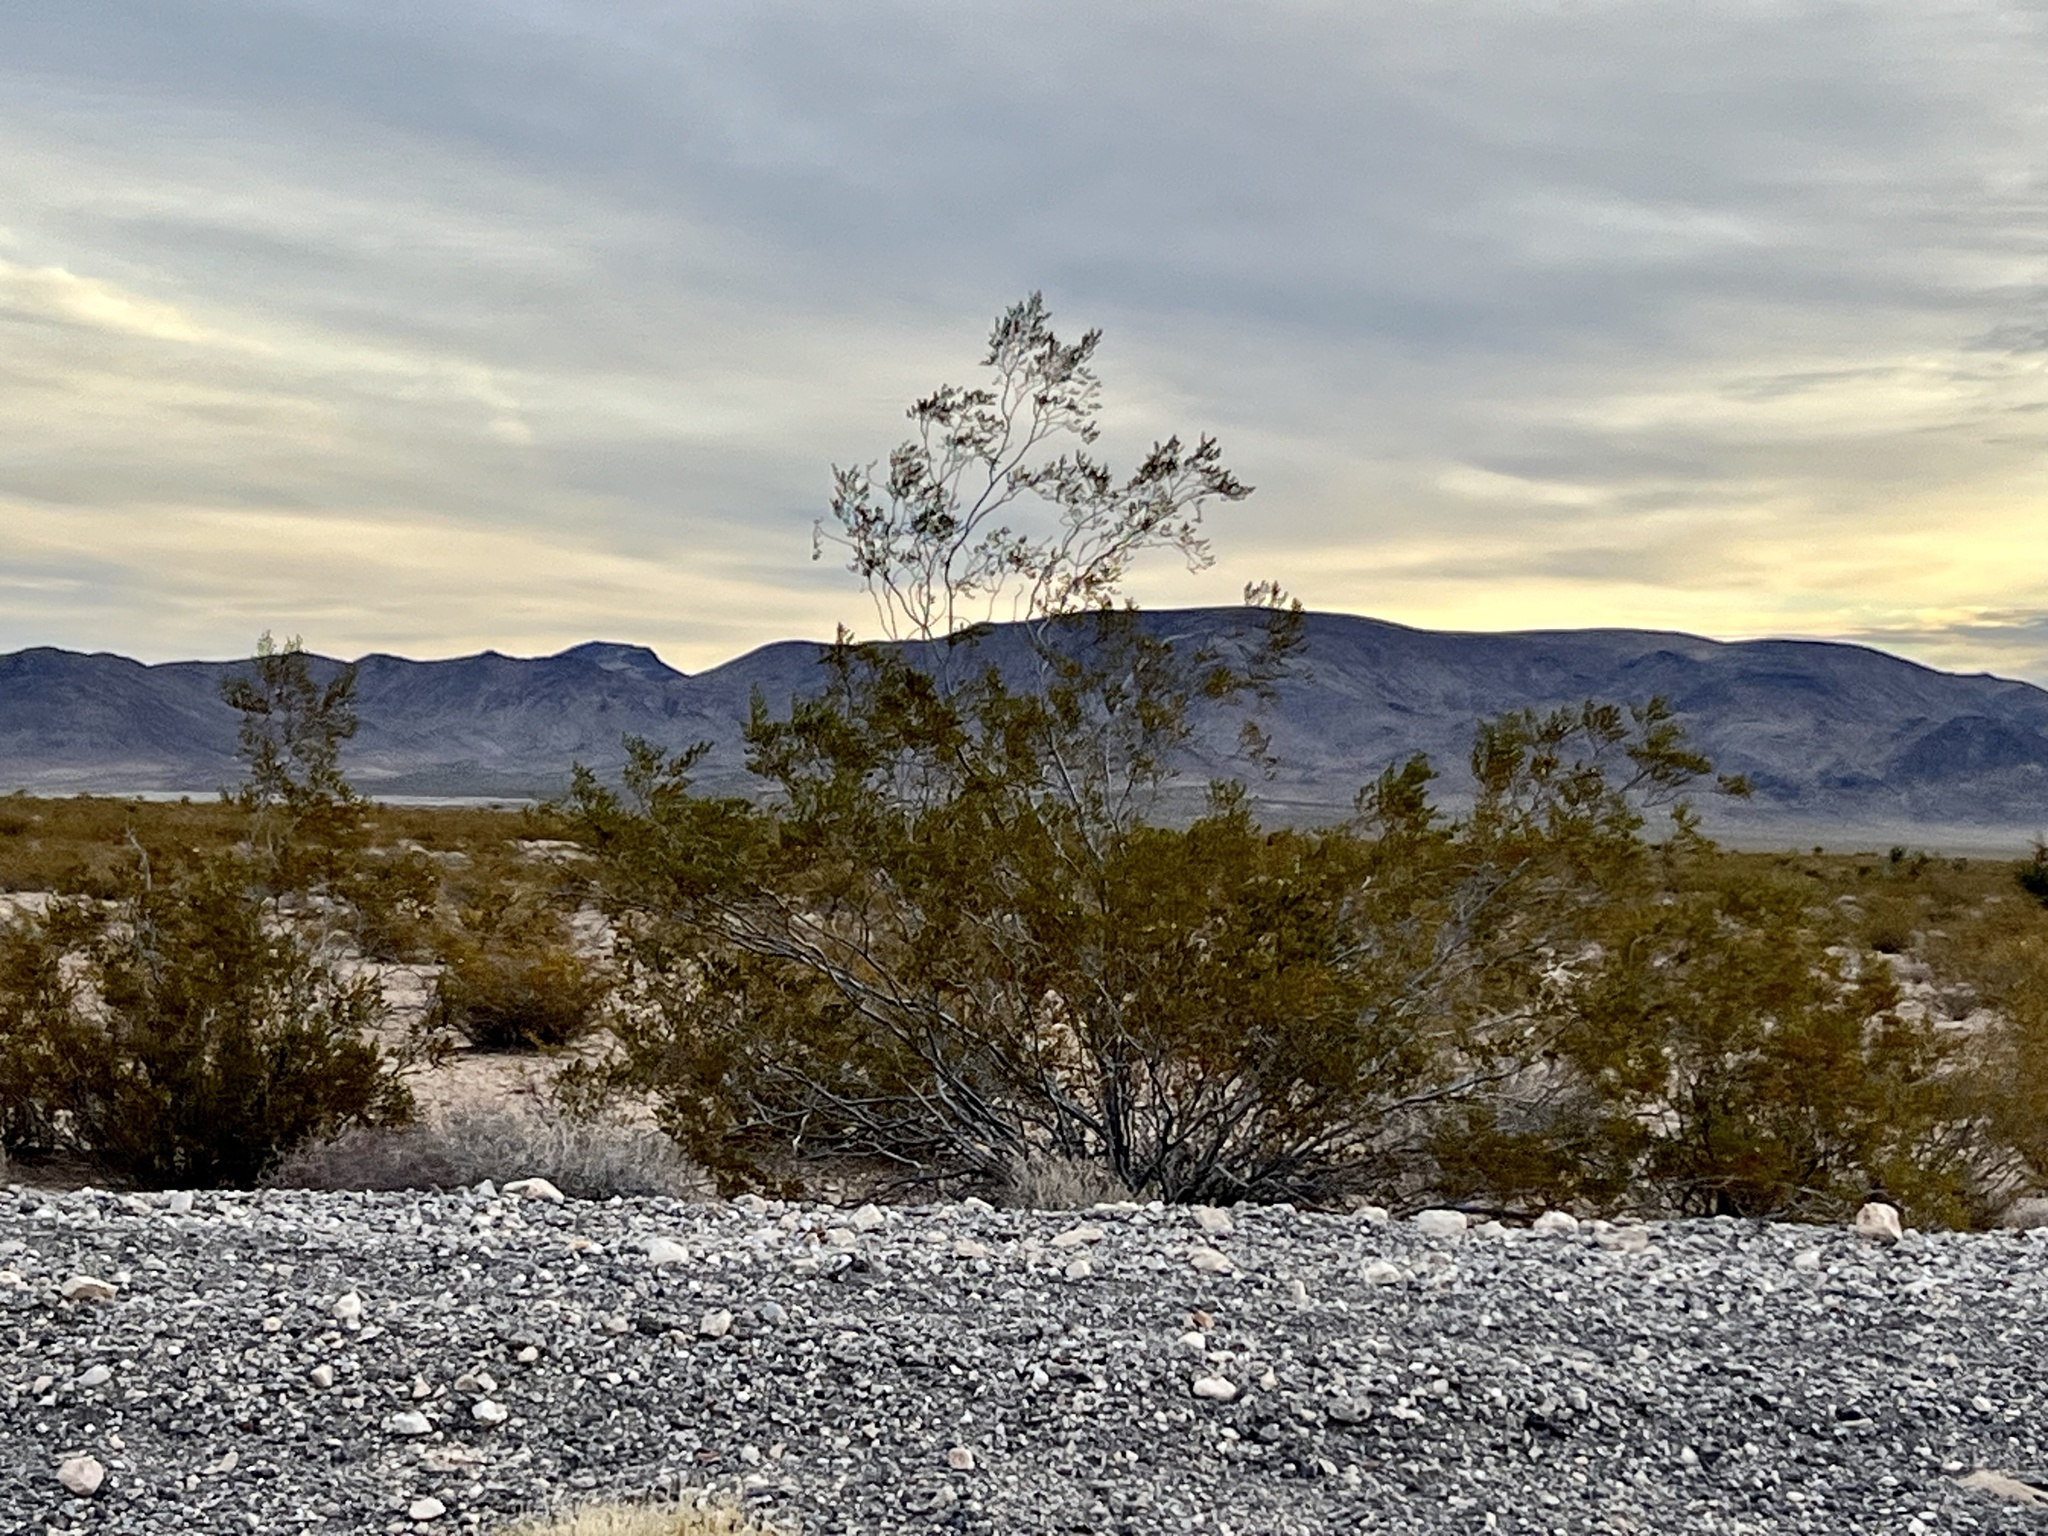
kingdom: Plantae
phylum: Tracheophyta
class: Magnoliopsida
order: Zygophyllales
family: Zygophyllaceae
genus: Larrea
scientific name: Larrea tridentata
